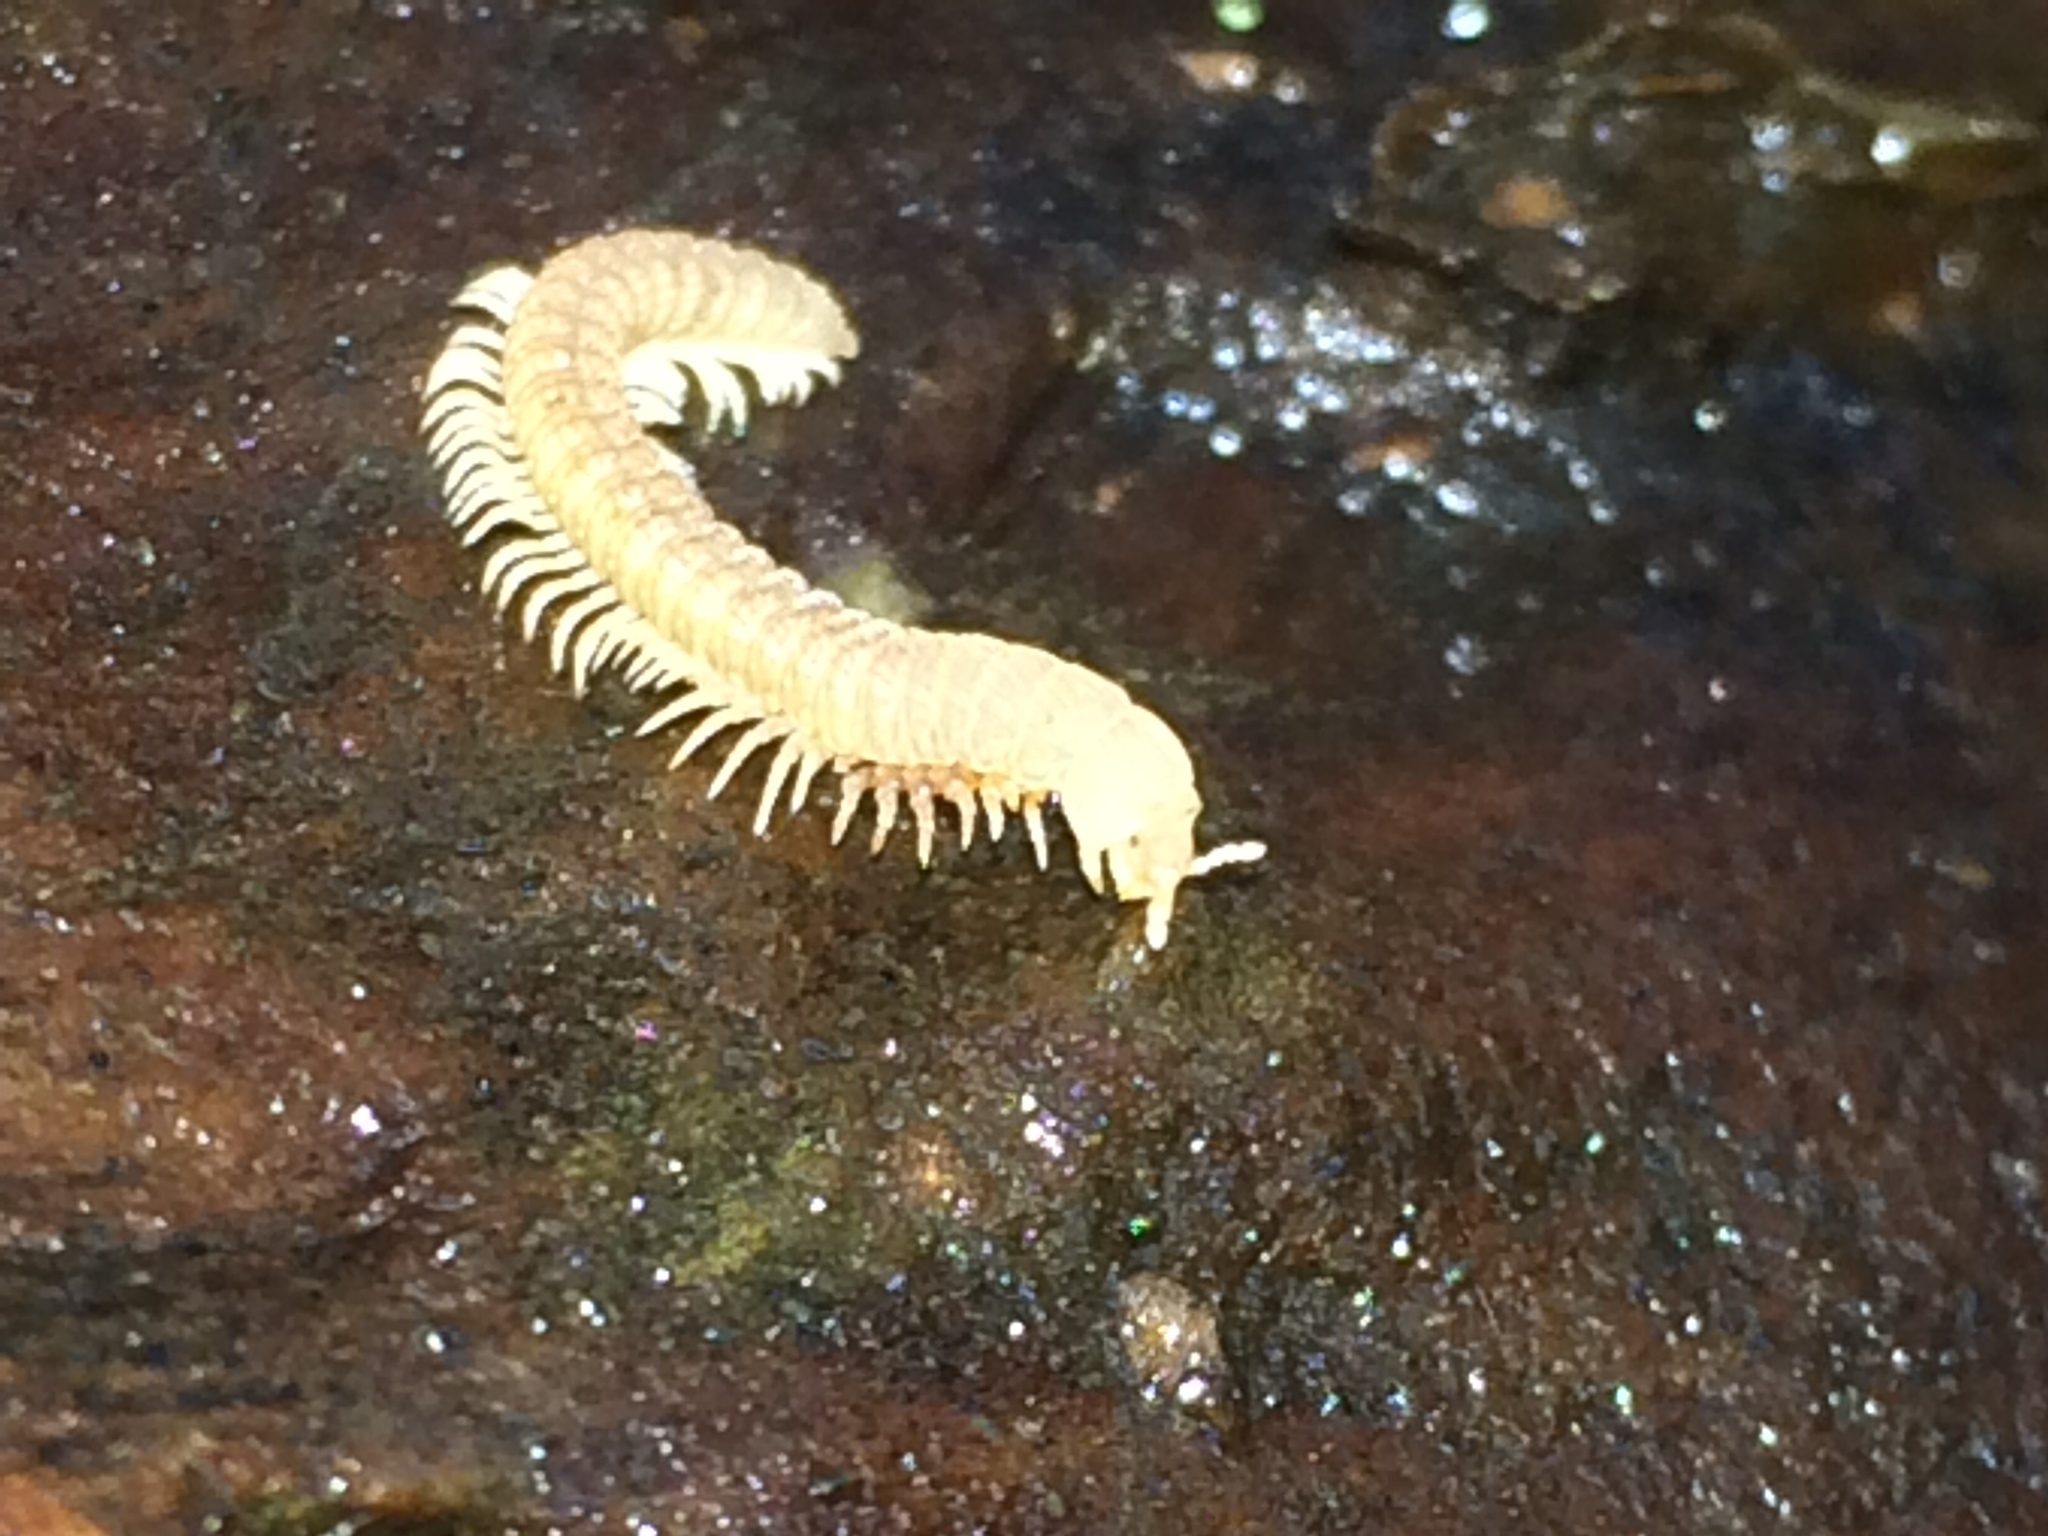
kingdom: Animalia
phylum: Arthropoda
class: Diplopoda
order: Chordeumatida
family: Striariidae
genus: Striaria
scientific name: Striaria nazinta
